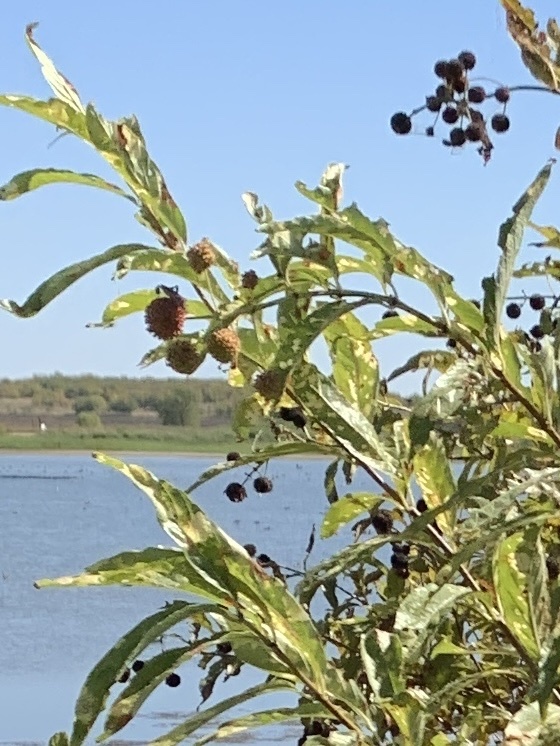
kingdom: Plantae
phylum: Tracheophyta
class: Magnoliopsida
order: Gentianales
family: Rubiaceae
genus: Cephalanthus
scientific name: Cephalanthus occidentalis
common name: Button-willow
